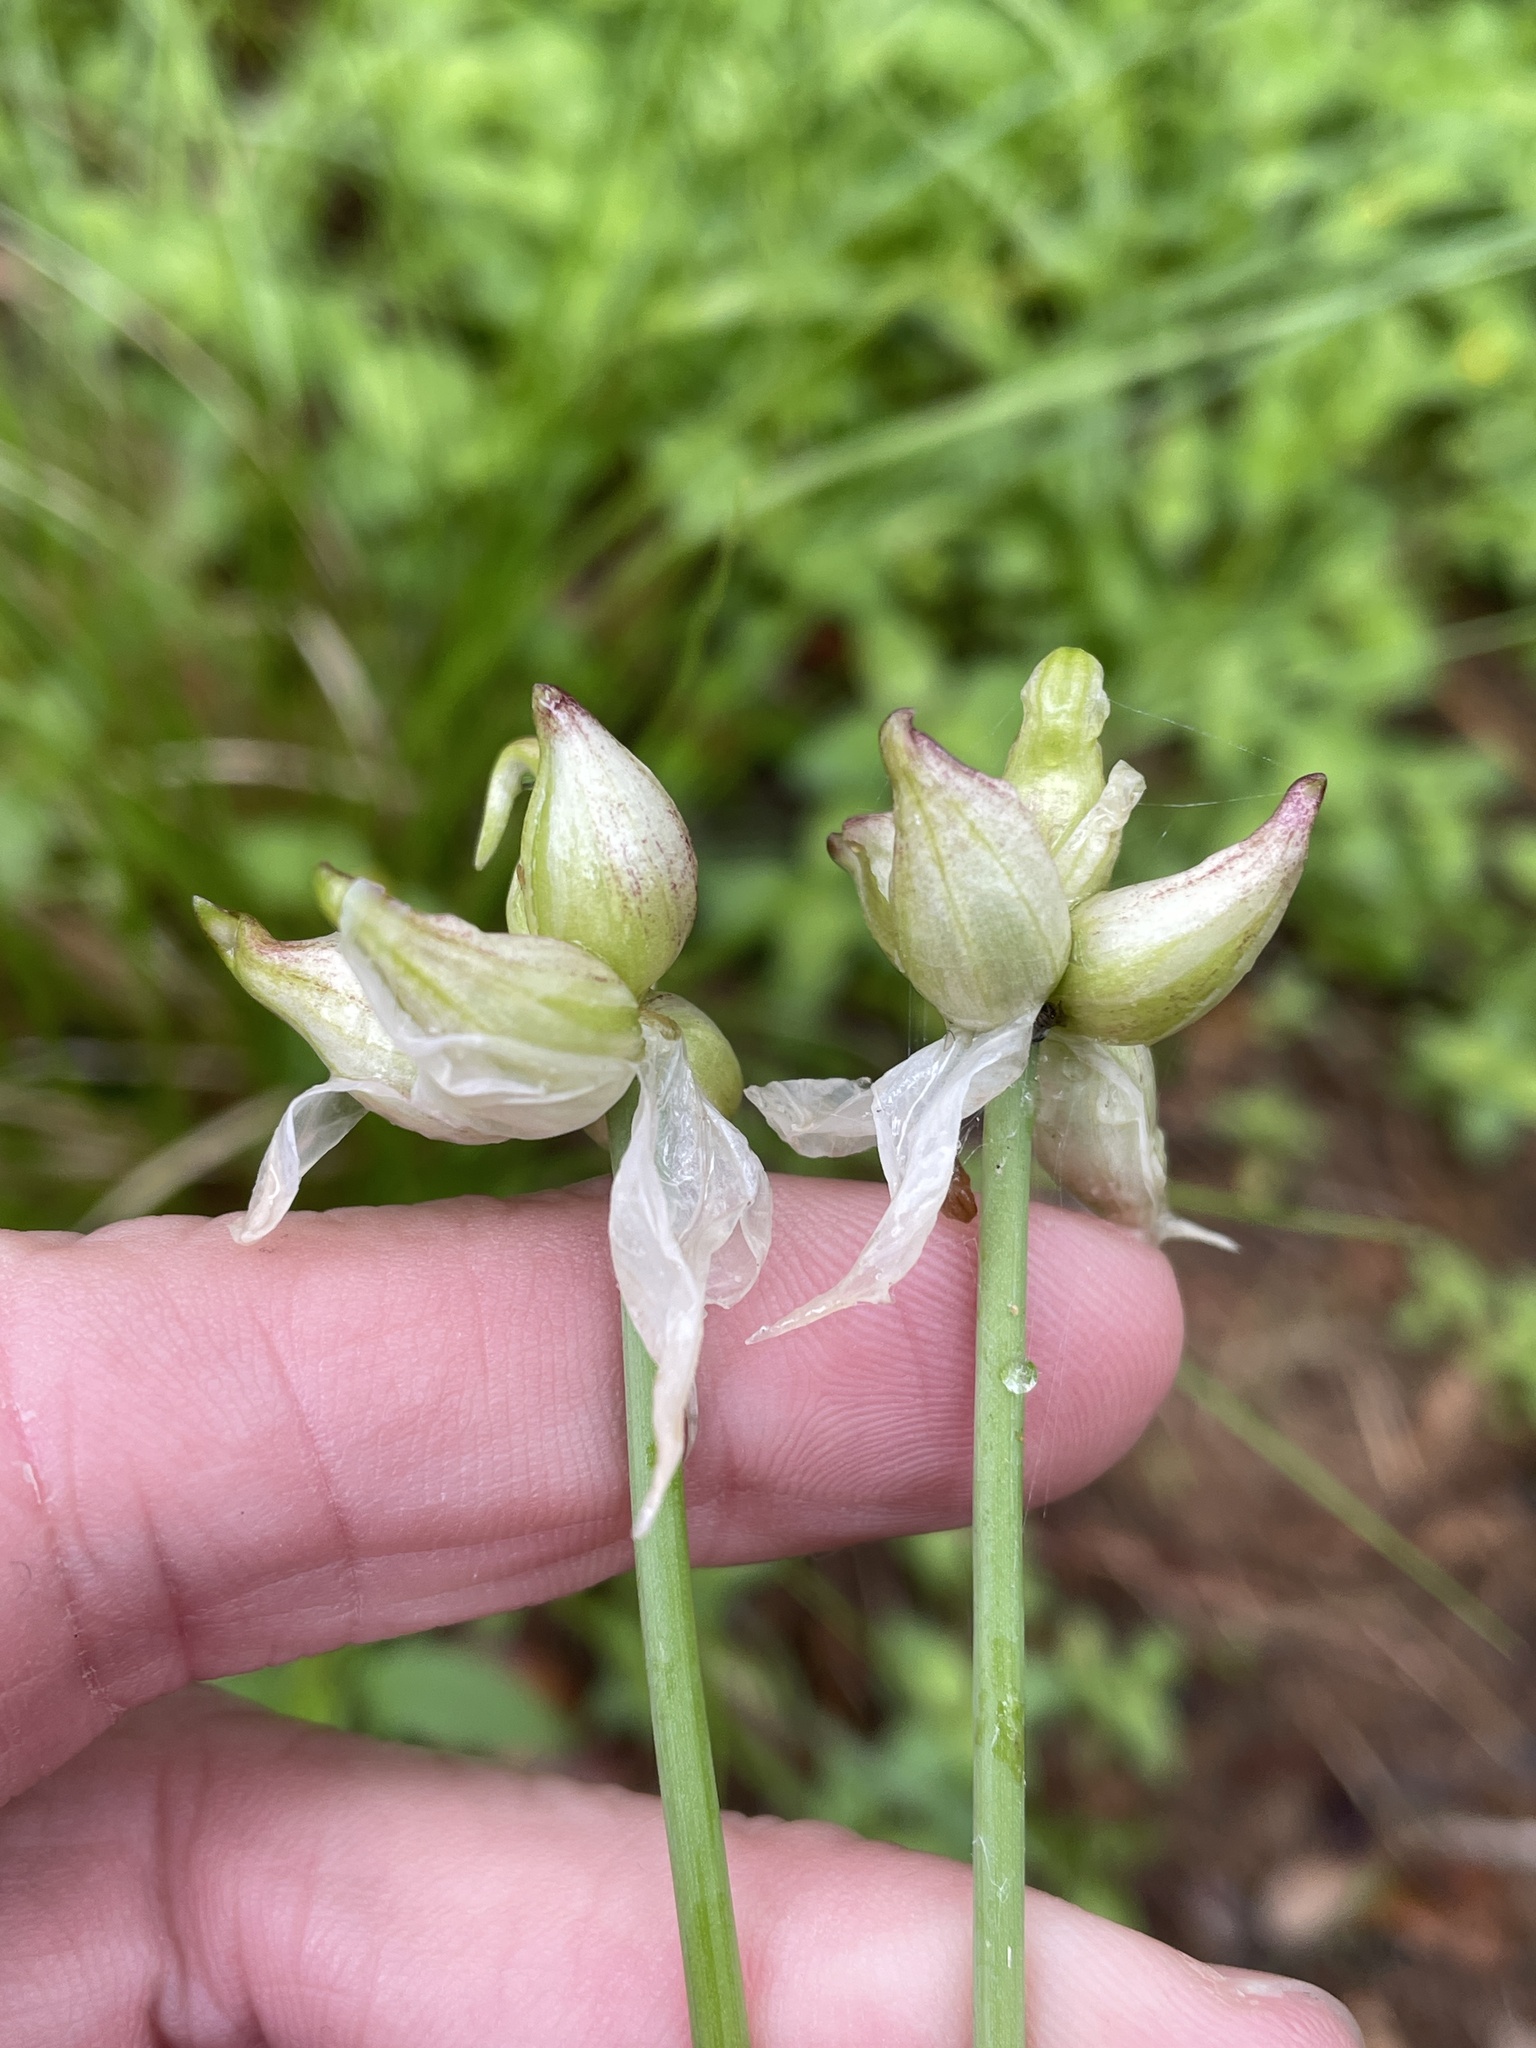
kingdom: Plantae
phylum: Tracheophyta
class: Liliopsida
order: Asparagales
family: Amaryllidaceae
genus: Allium
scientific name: Allium canadense
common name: Meadow garlic
